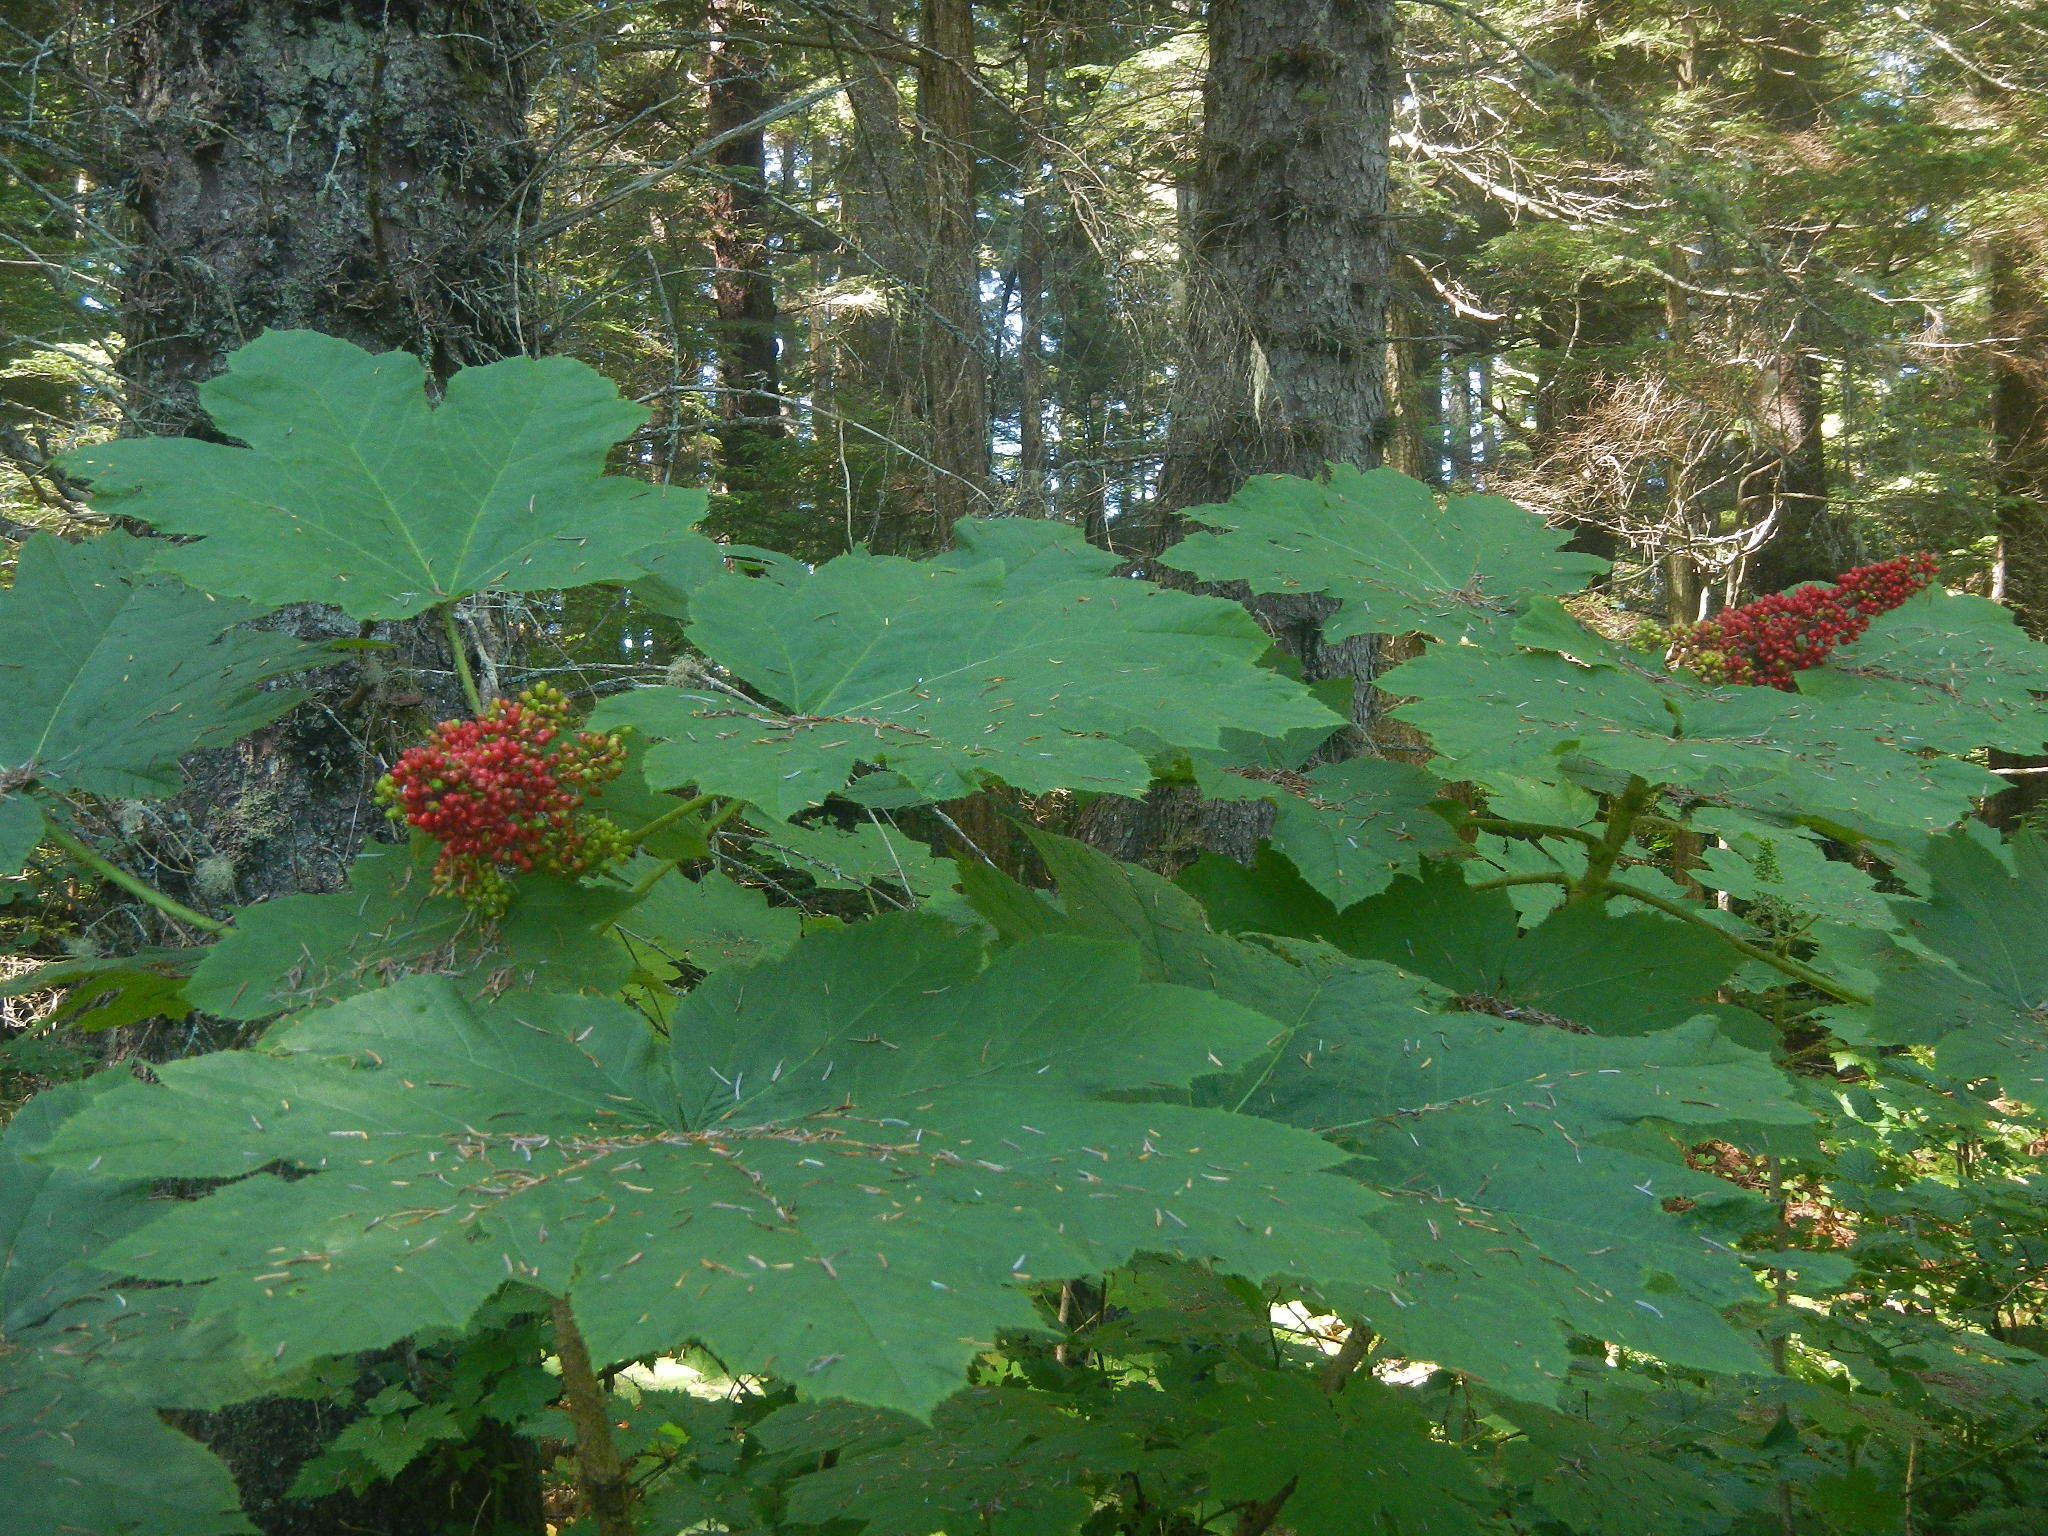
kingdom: Plantae
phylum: Tracheophyta
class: Magnoliopsida
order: Apiales
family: Araliaceae
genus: Oplopanax
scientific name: Oplopanax horridus
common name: Devil's walking-stick
